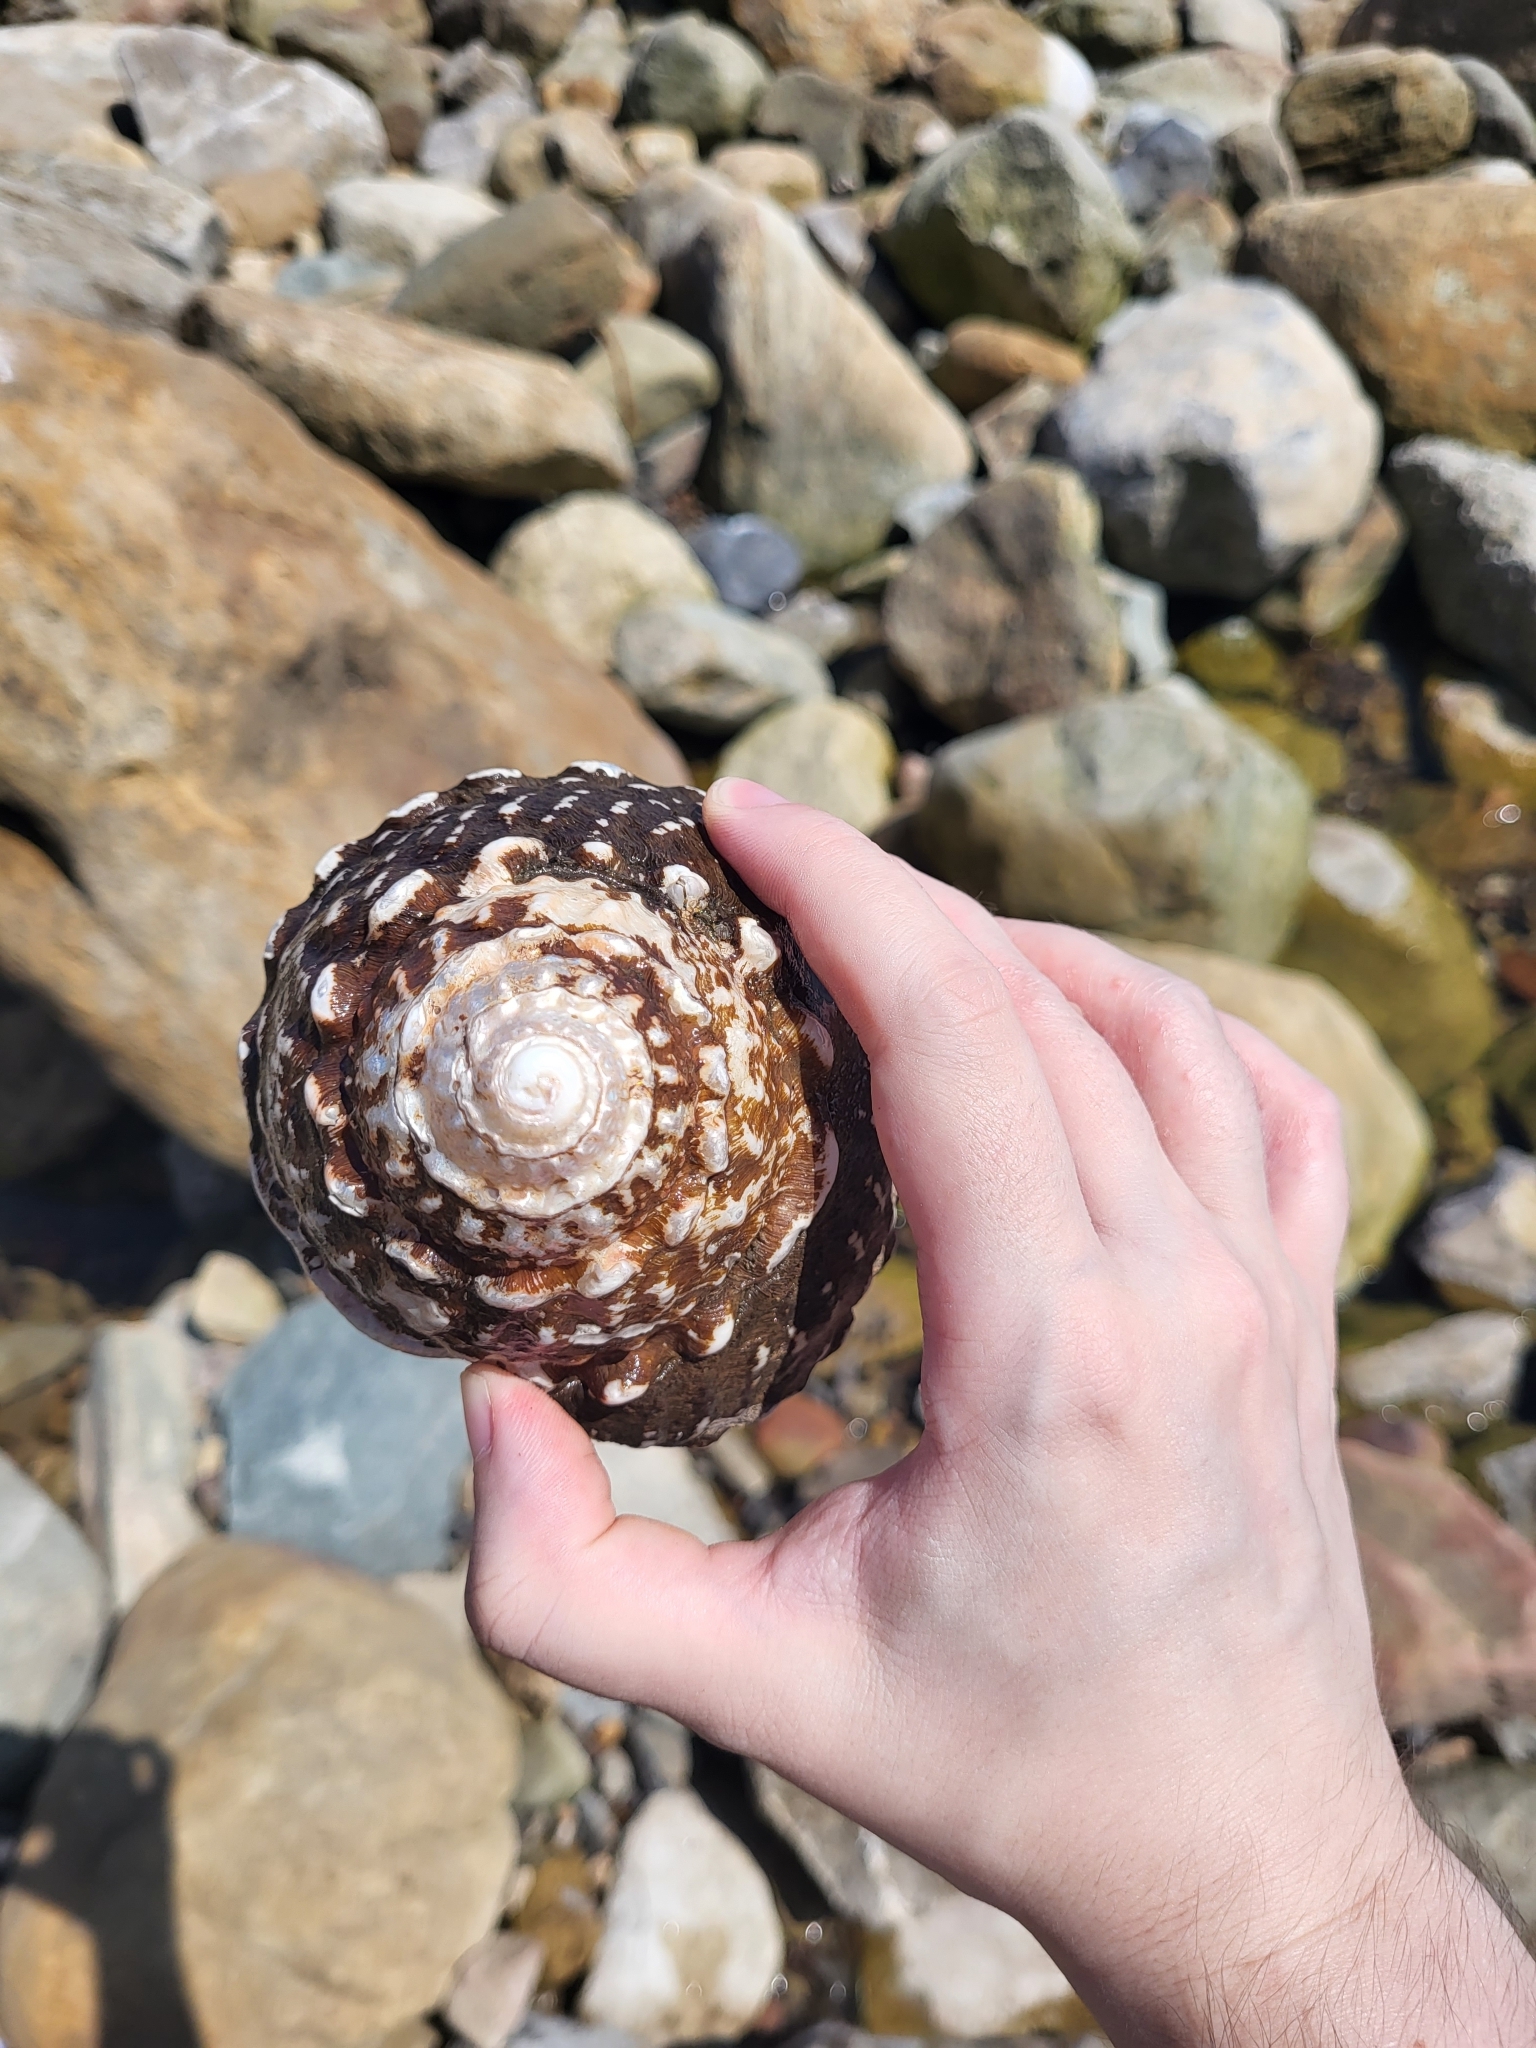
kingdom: Animalia
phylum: Mollusca
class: Gastropoda
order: Trochida
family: Turbinidae
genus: Megastraea
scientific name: Megastraea undosa
